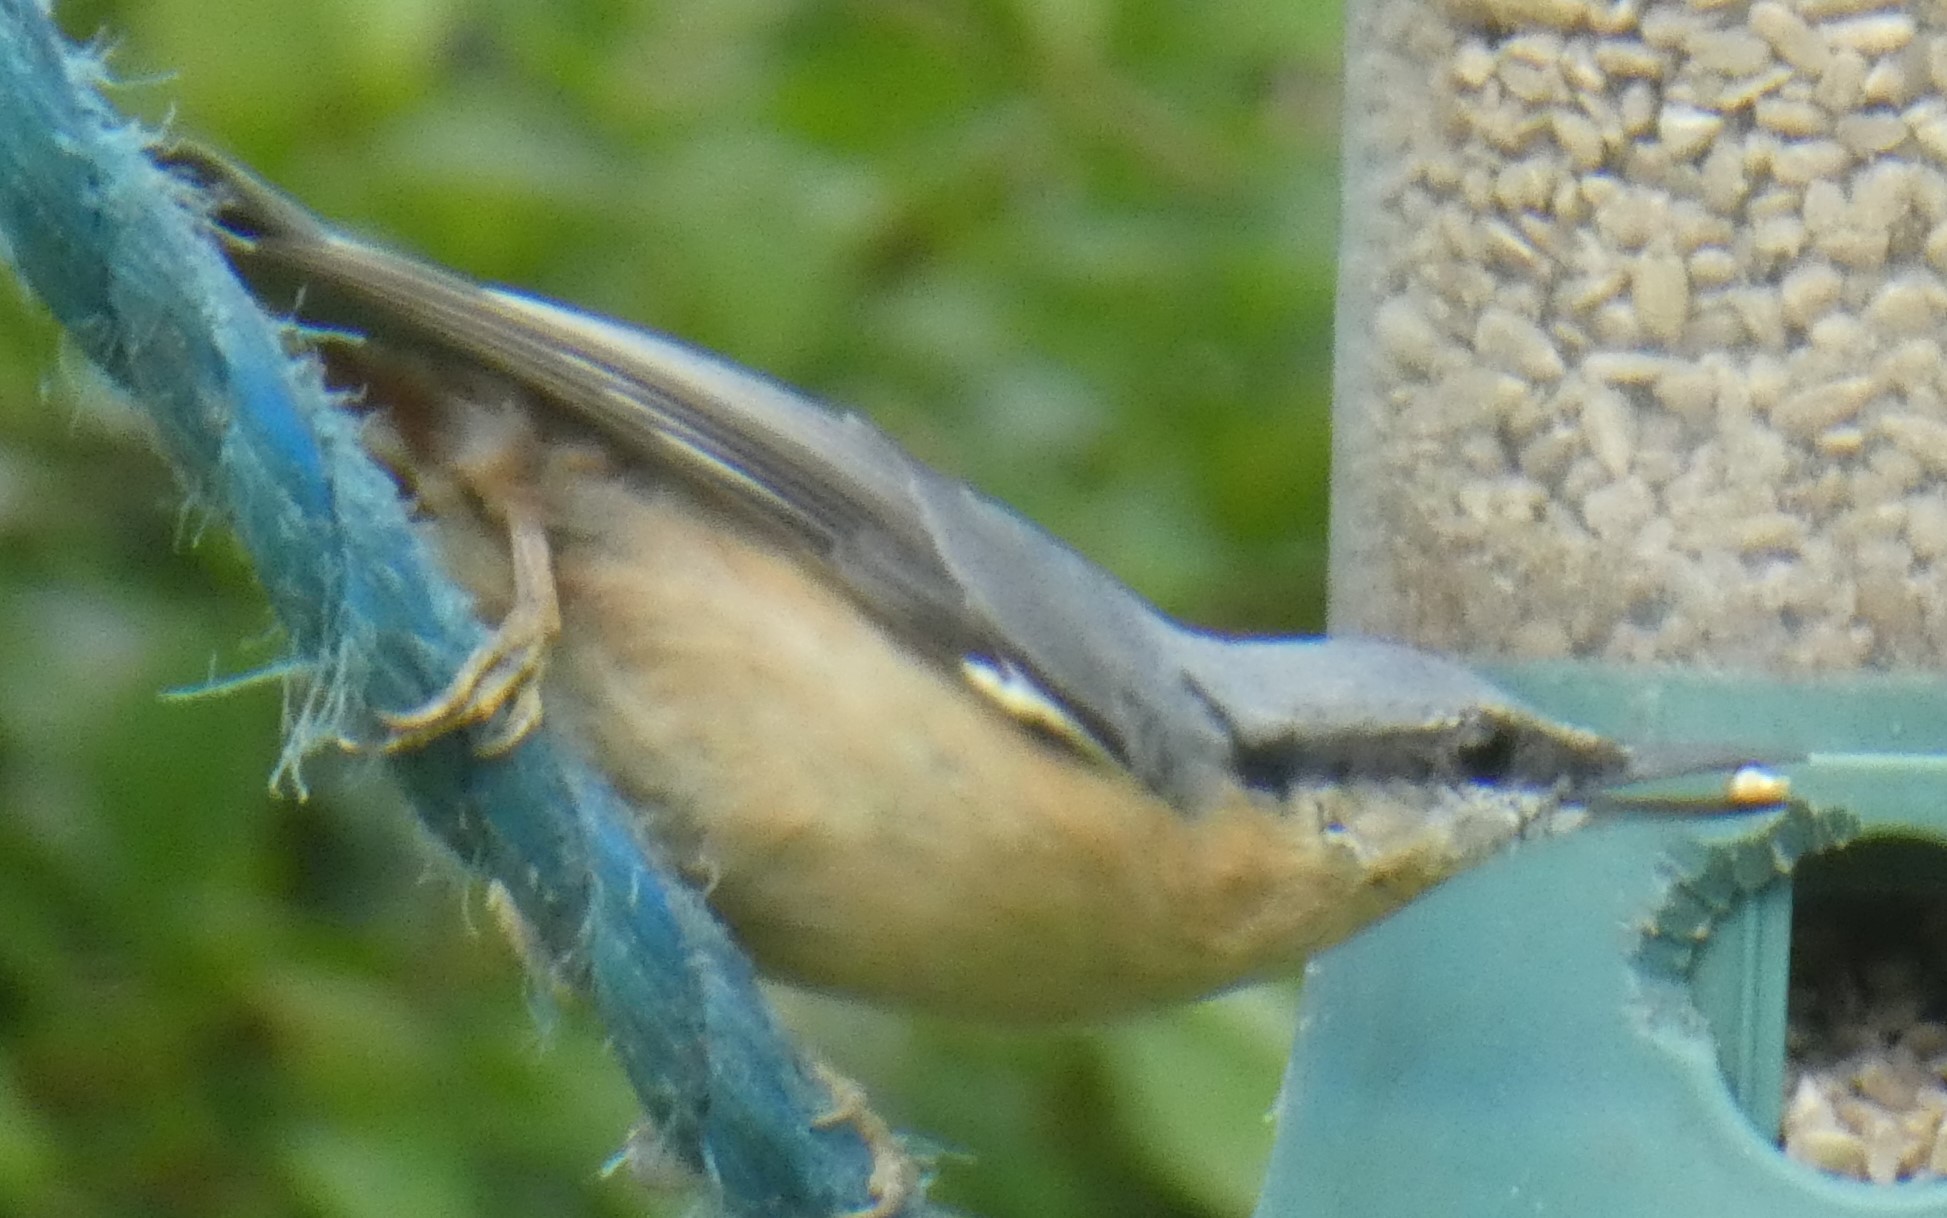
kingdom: Animalia
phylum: Chordata
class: Aves
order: Passeriformes
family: Sittidae
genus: Sitta
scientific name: Sitta europaea
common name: Eurasian nuthatch
